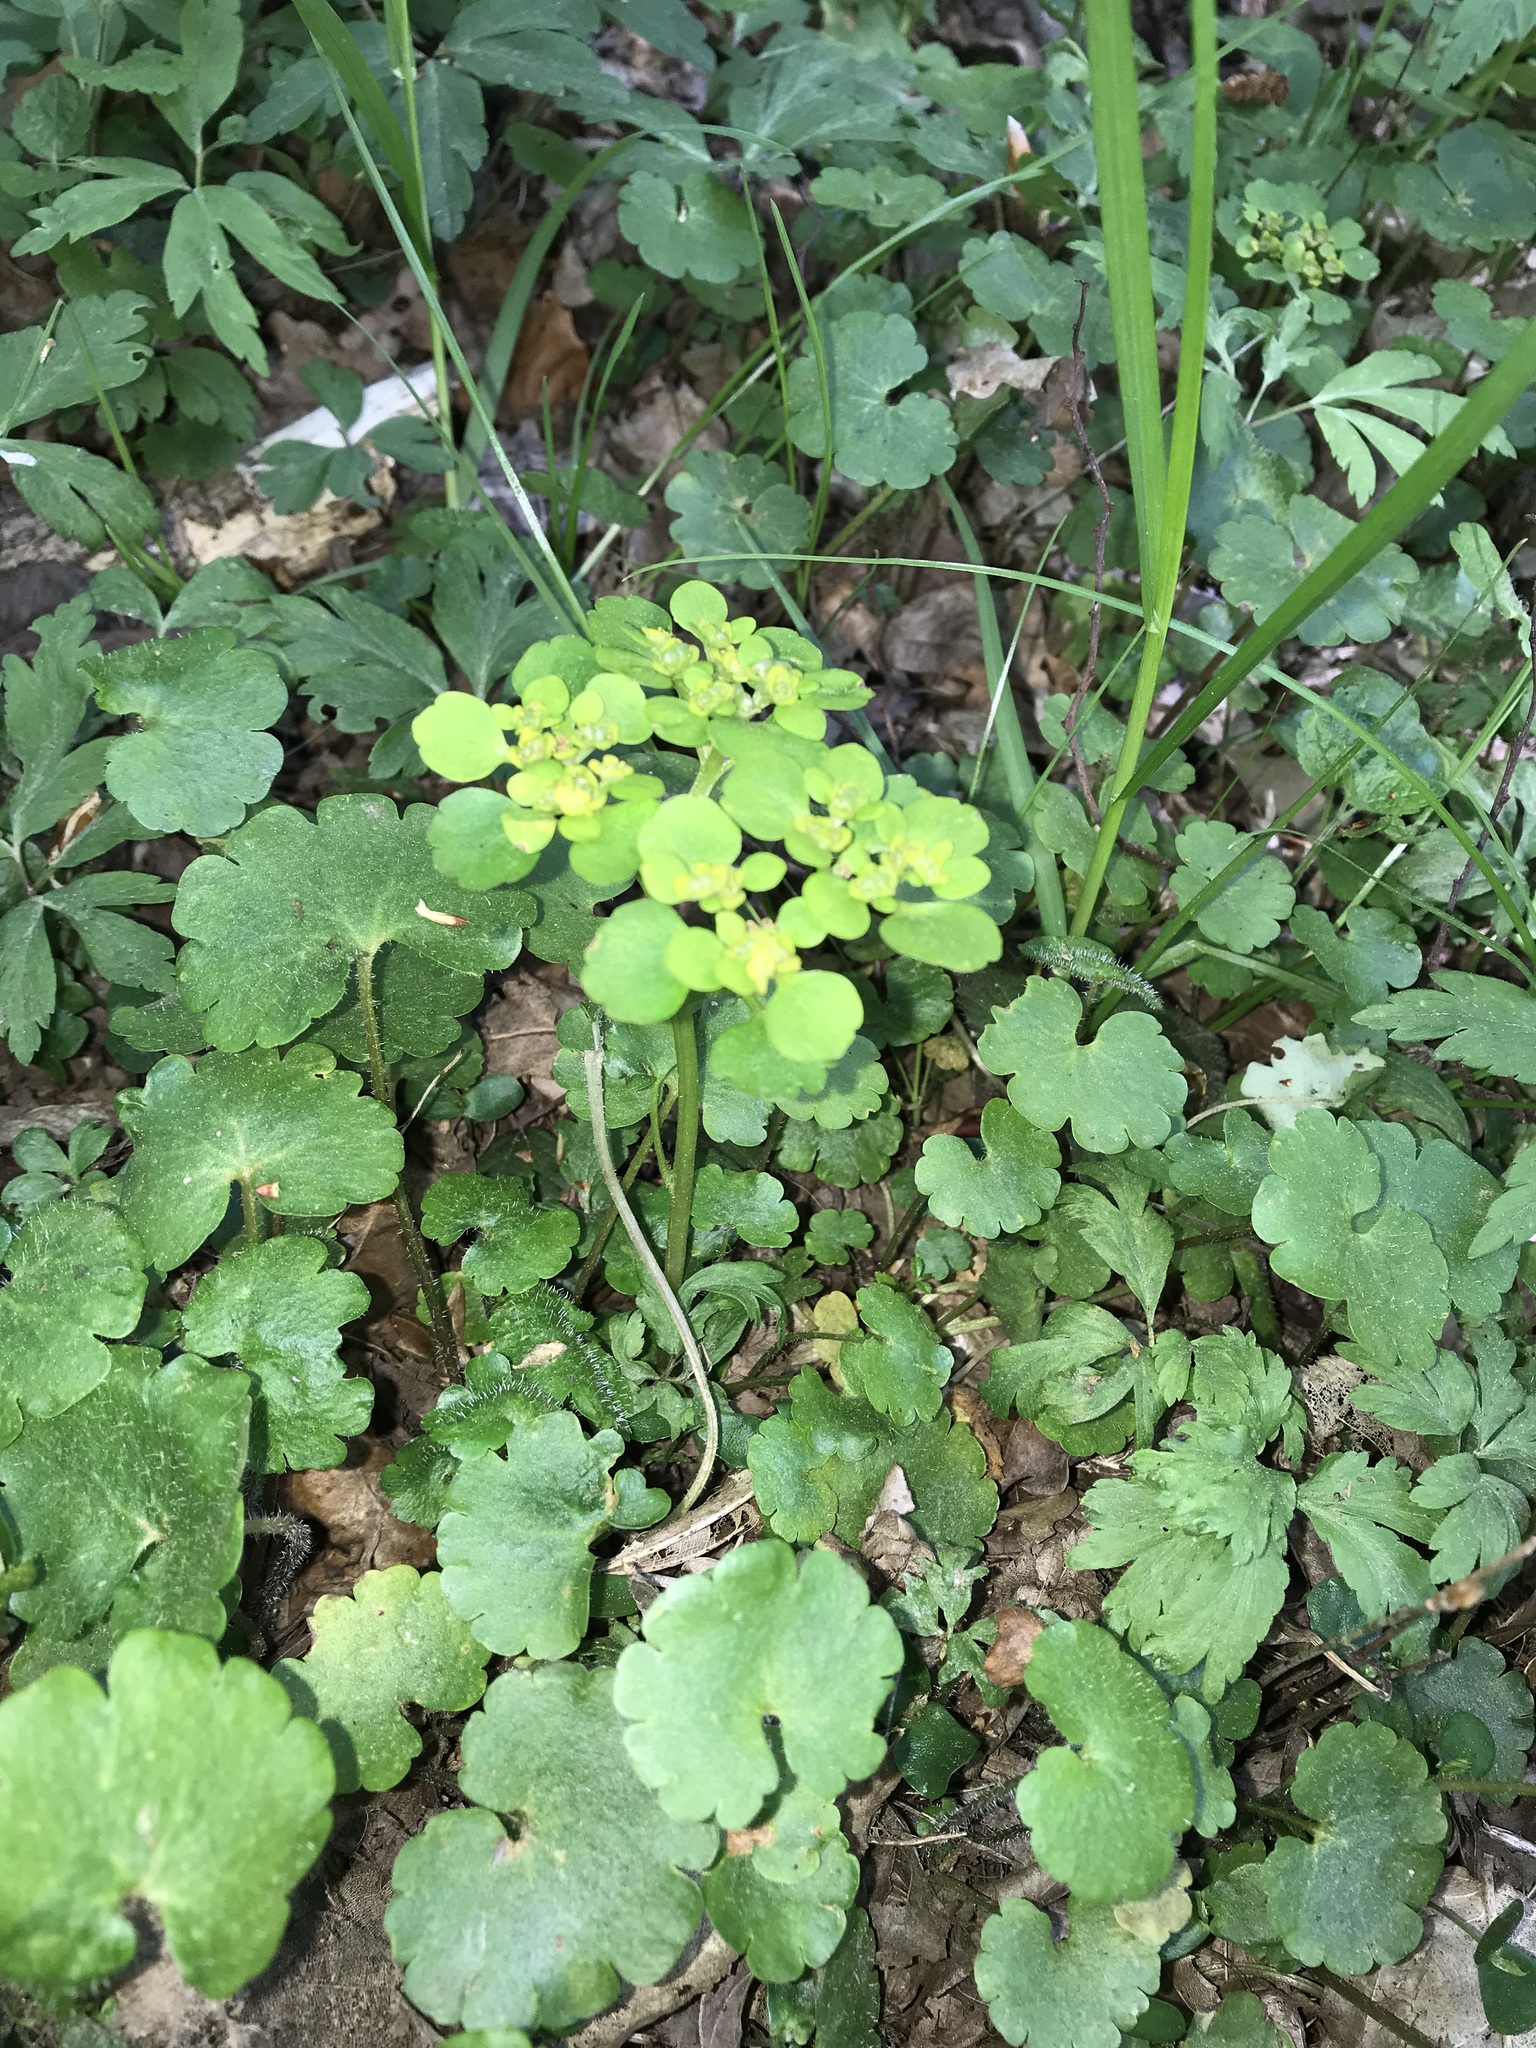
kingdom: Plantae
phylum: Tracheophyta
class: Magnoliopsida
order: Saxifragales
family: Saxifragaceae
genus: Chrysosplenium
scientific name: Chrysosplenium alternifolium
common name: Alternate-leaved golden-saxifrage
